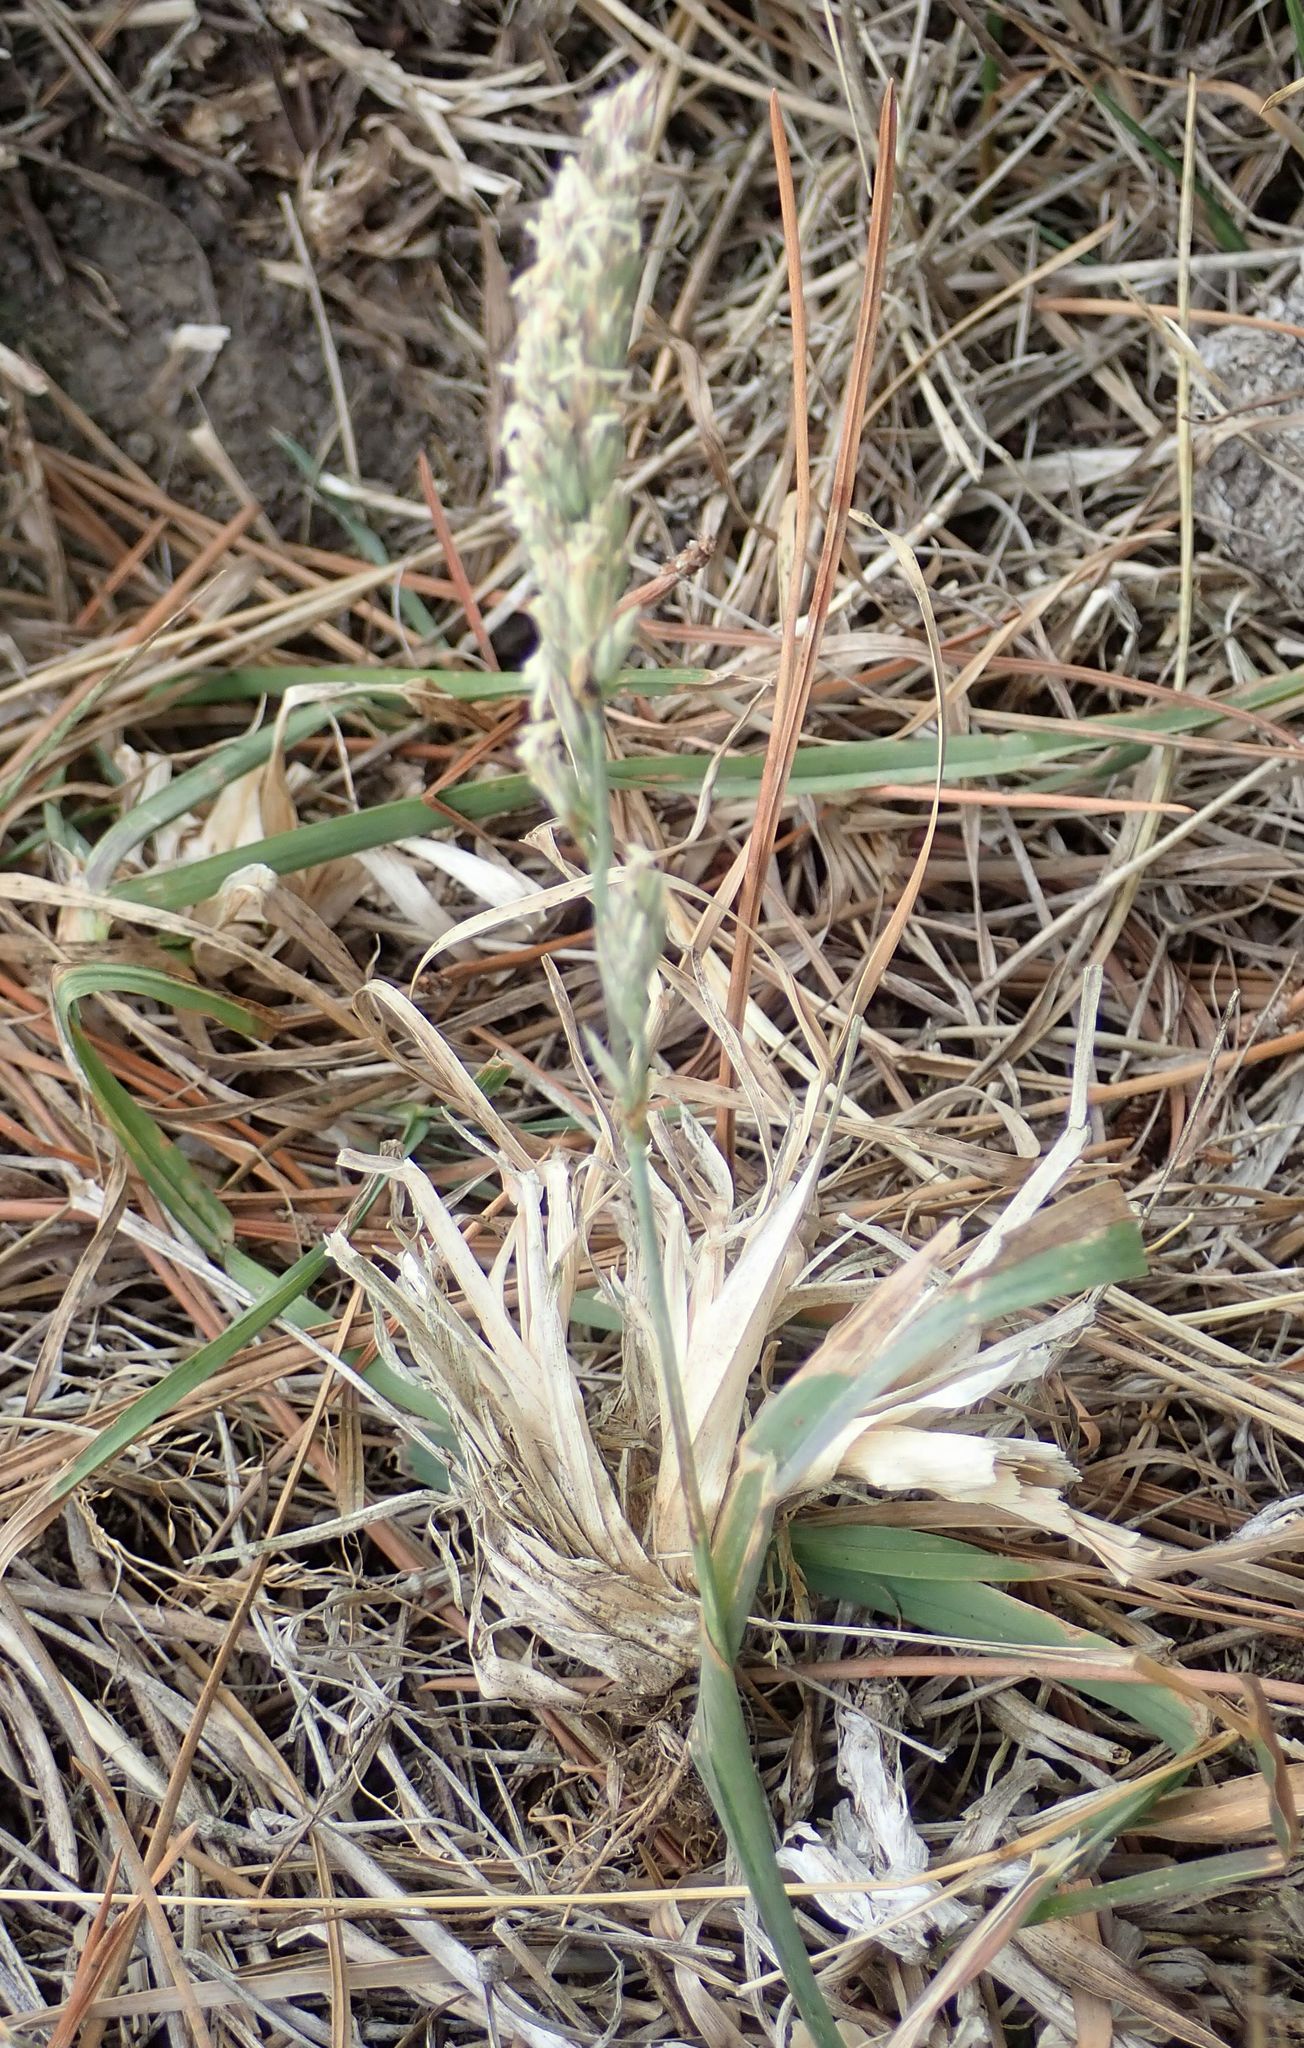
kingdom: Plantae
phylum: Tracheophyta
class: Liliopsida
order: Poales
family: Poaceae
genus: Dactylis
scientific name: Dactylis glomerata
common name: Orchardgrass
